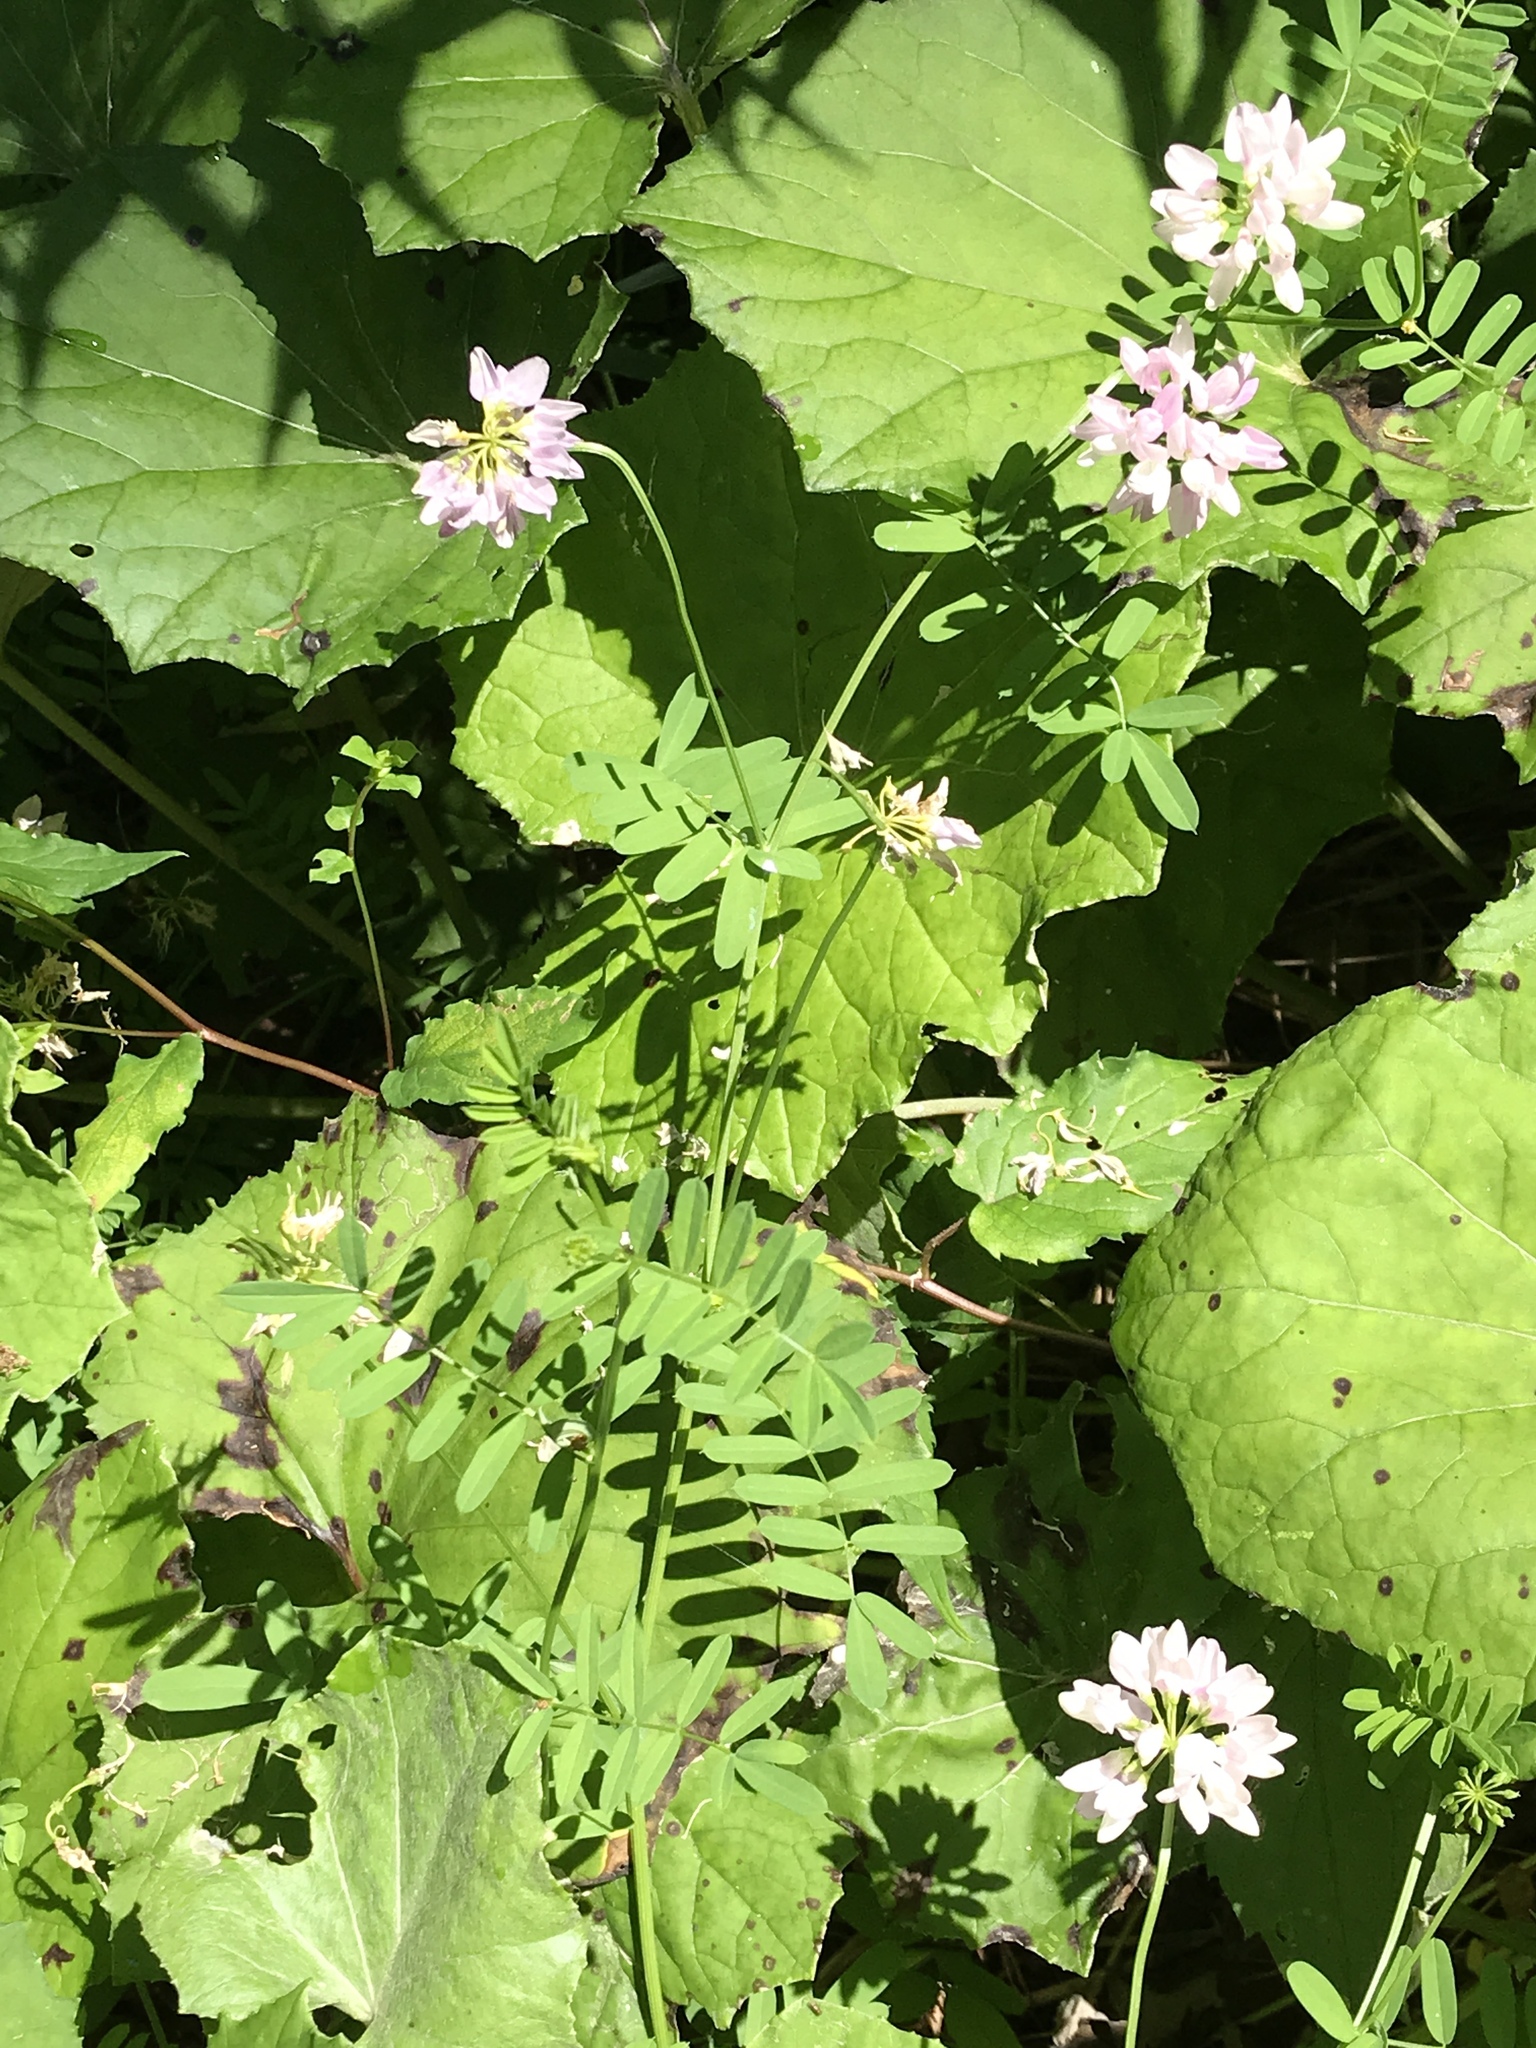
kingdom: Plantae
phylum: Tracheophyta
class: Magnoliopsida
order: Fabales
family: Fabaceae
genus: Coronilla
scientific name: Coronilla varia
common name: Crownvetch
